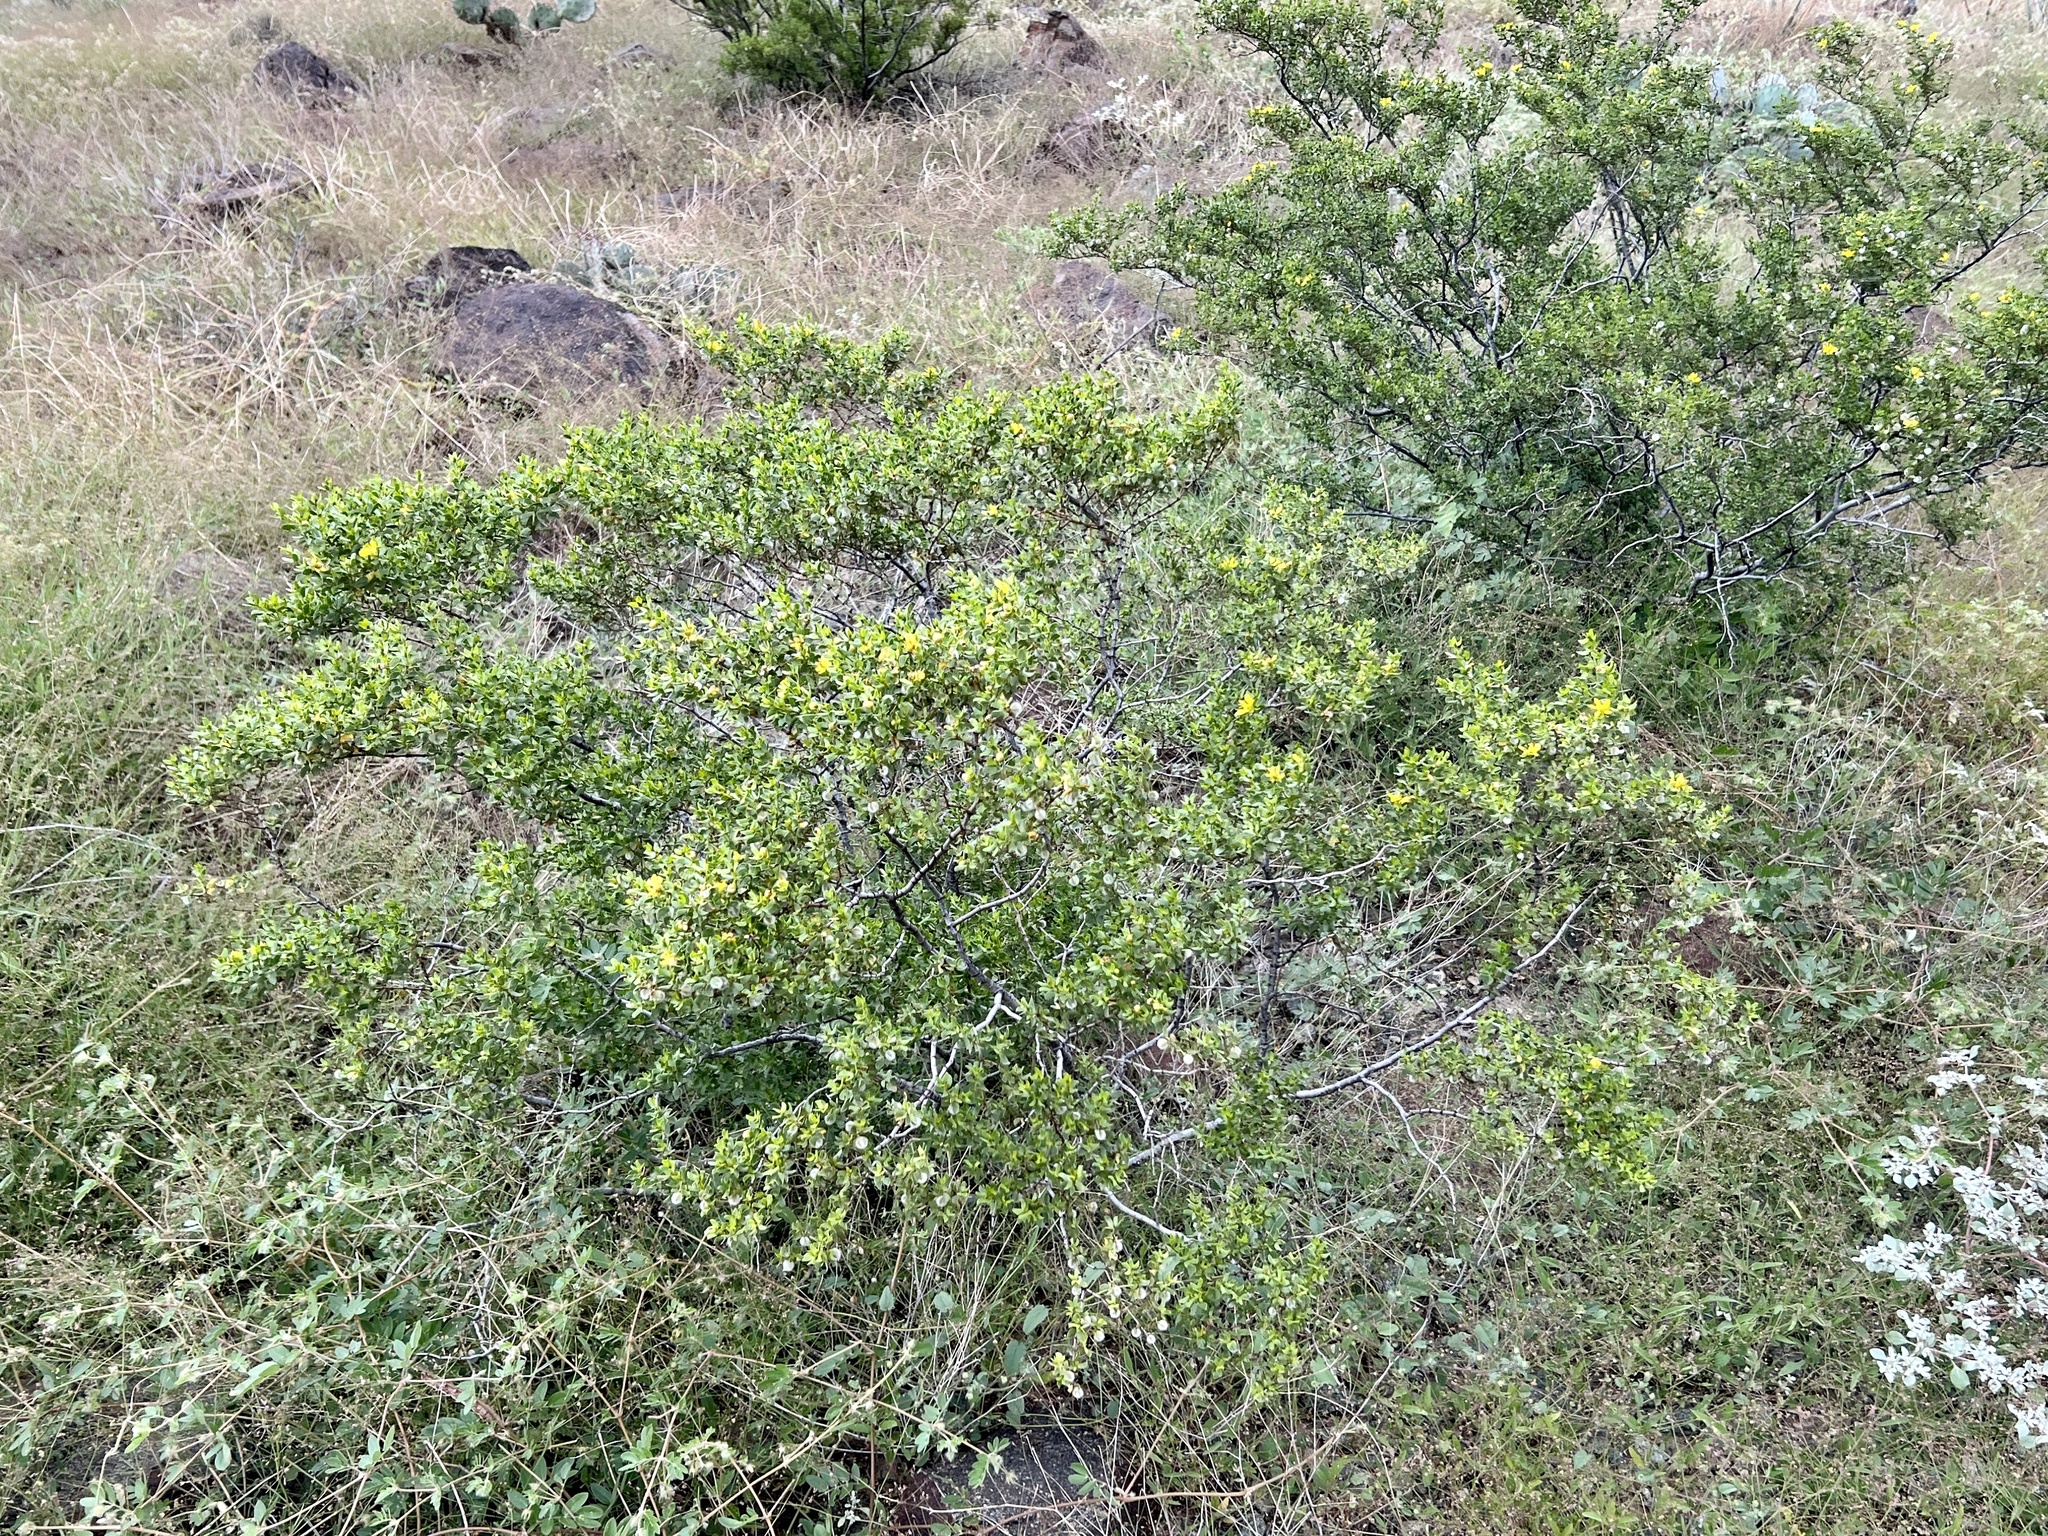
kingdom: Plantae
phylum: Tracheophyta
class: Magnoliopsida
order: Zygophyllales
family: Zygophyllaceae
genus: Larrea
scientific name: Larrea tridentata
